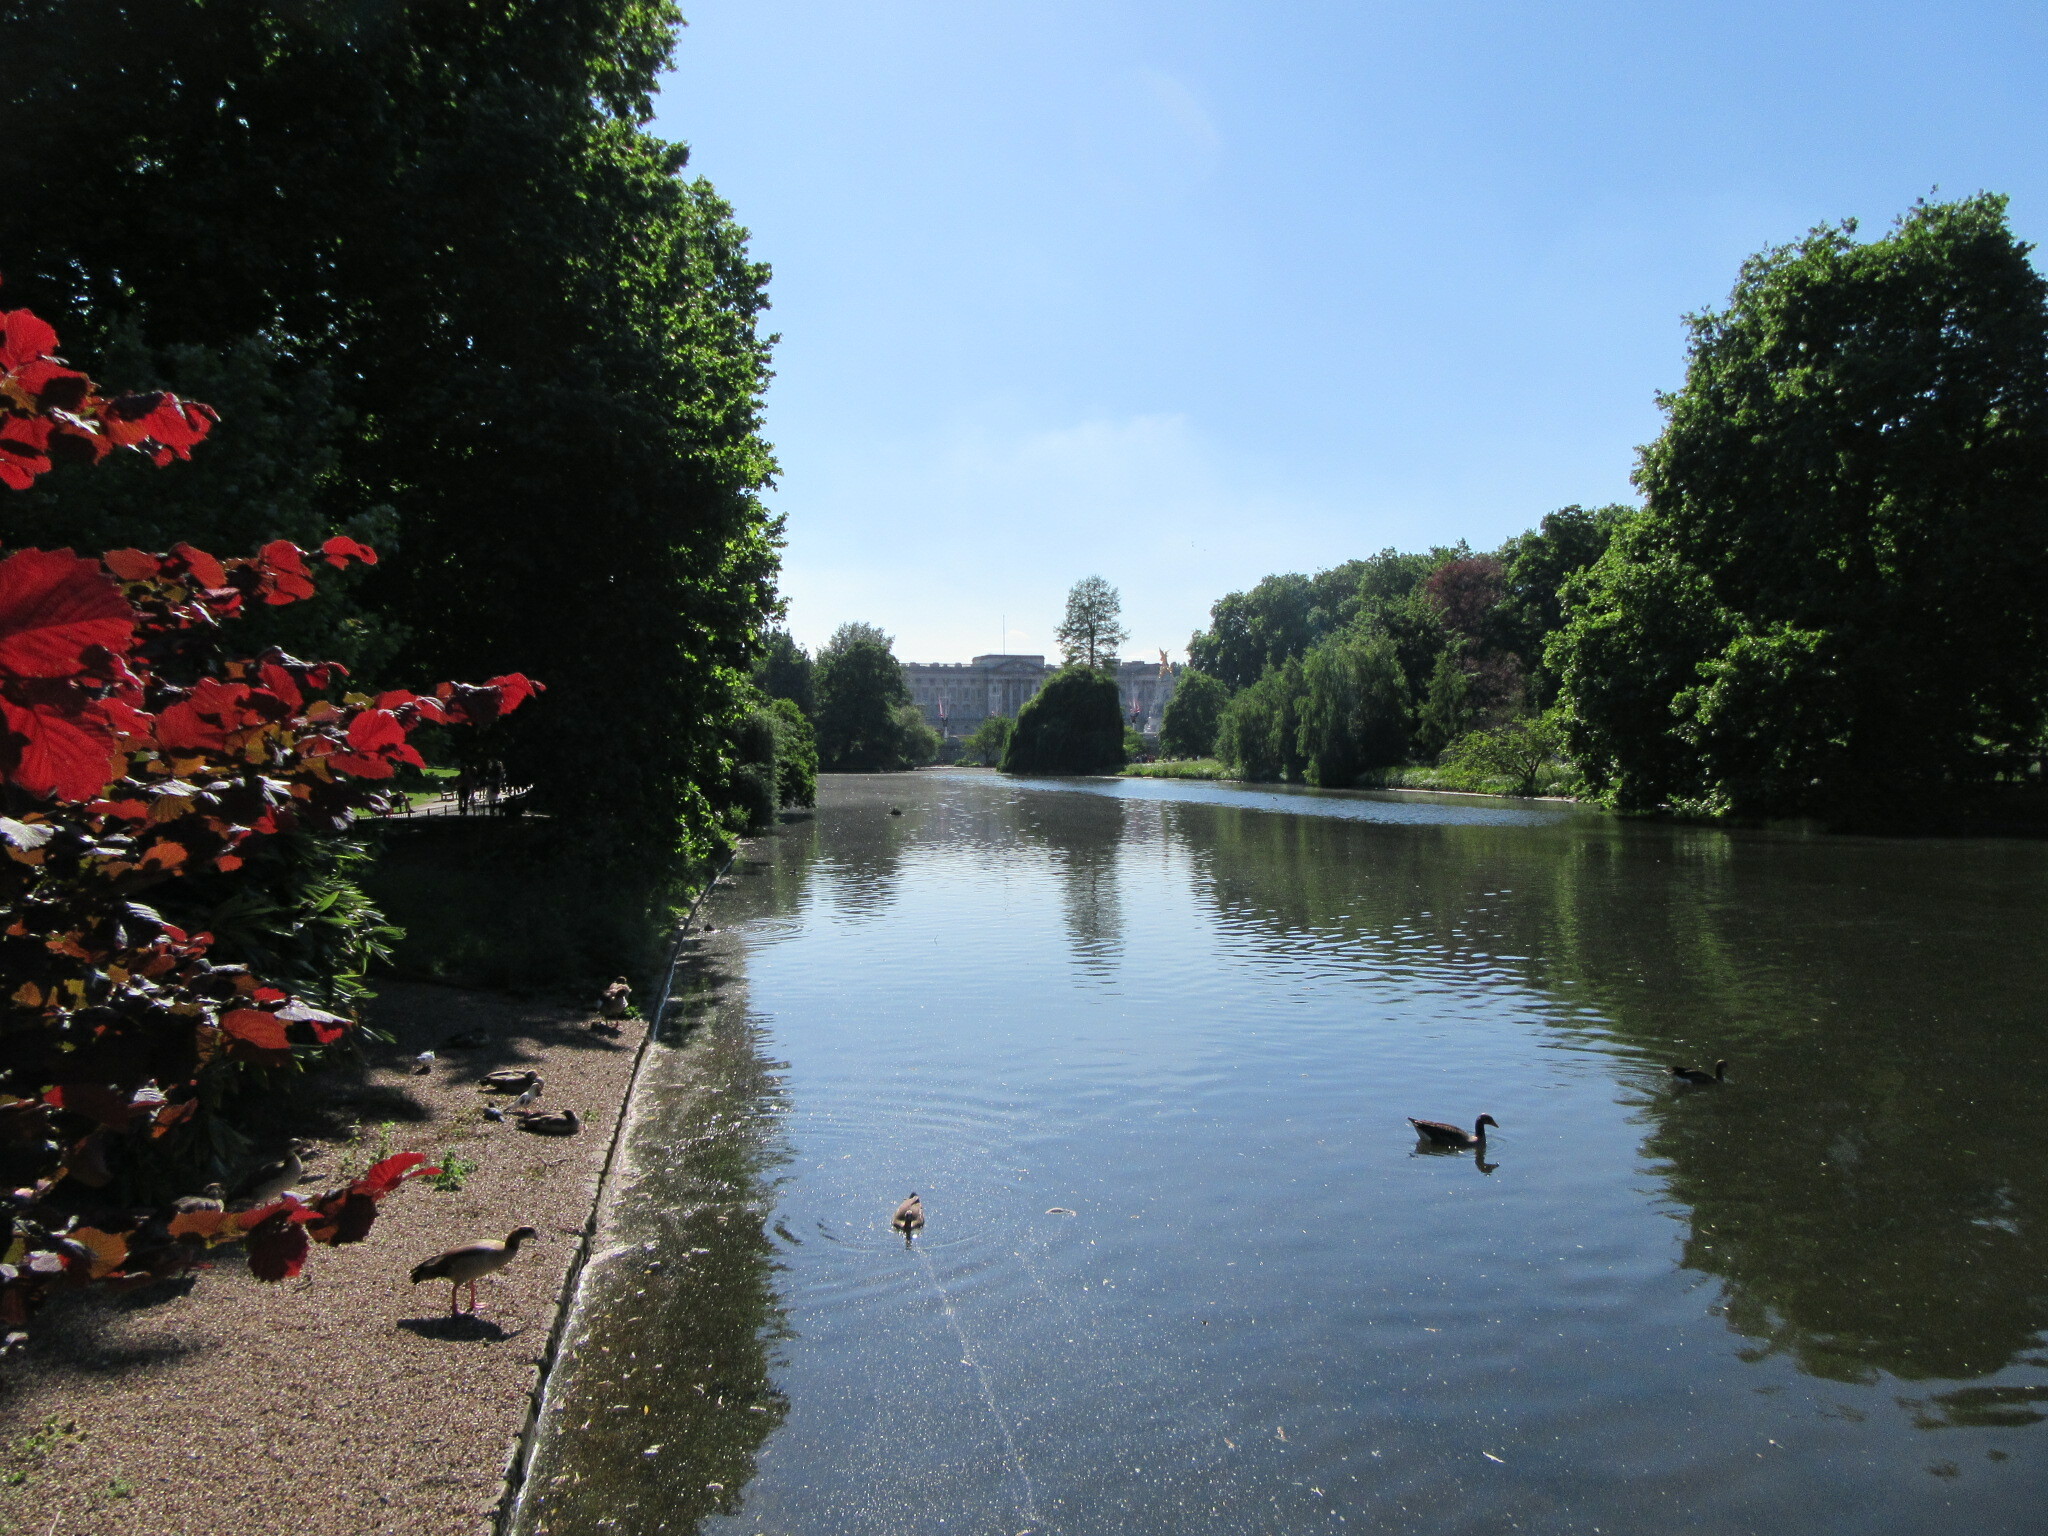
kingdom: Animalia
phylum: Chordata
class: Aves
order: Anseriformes
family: Anatidae
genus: Alopochen
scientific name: Alopochen aegyptiaca
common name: Egyptian goose
